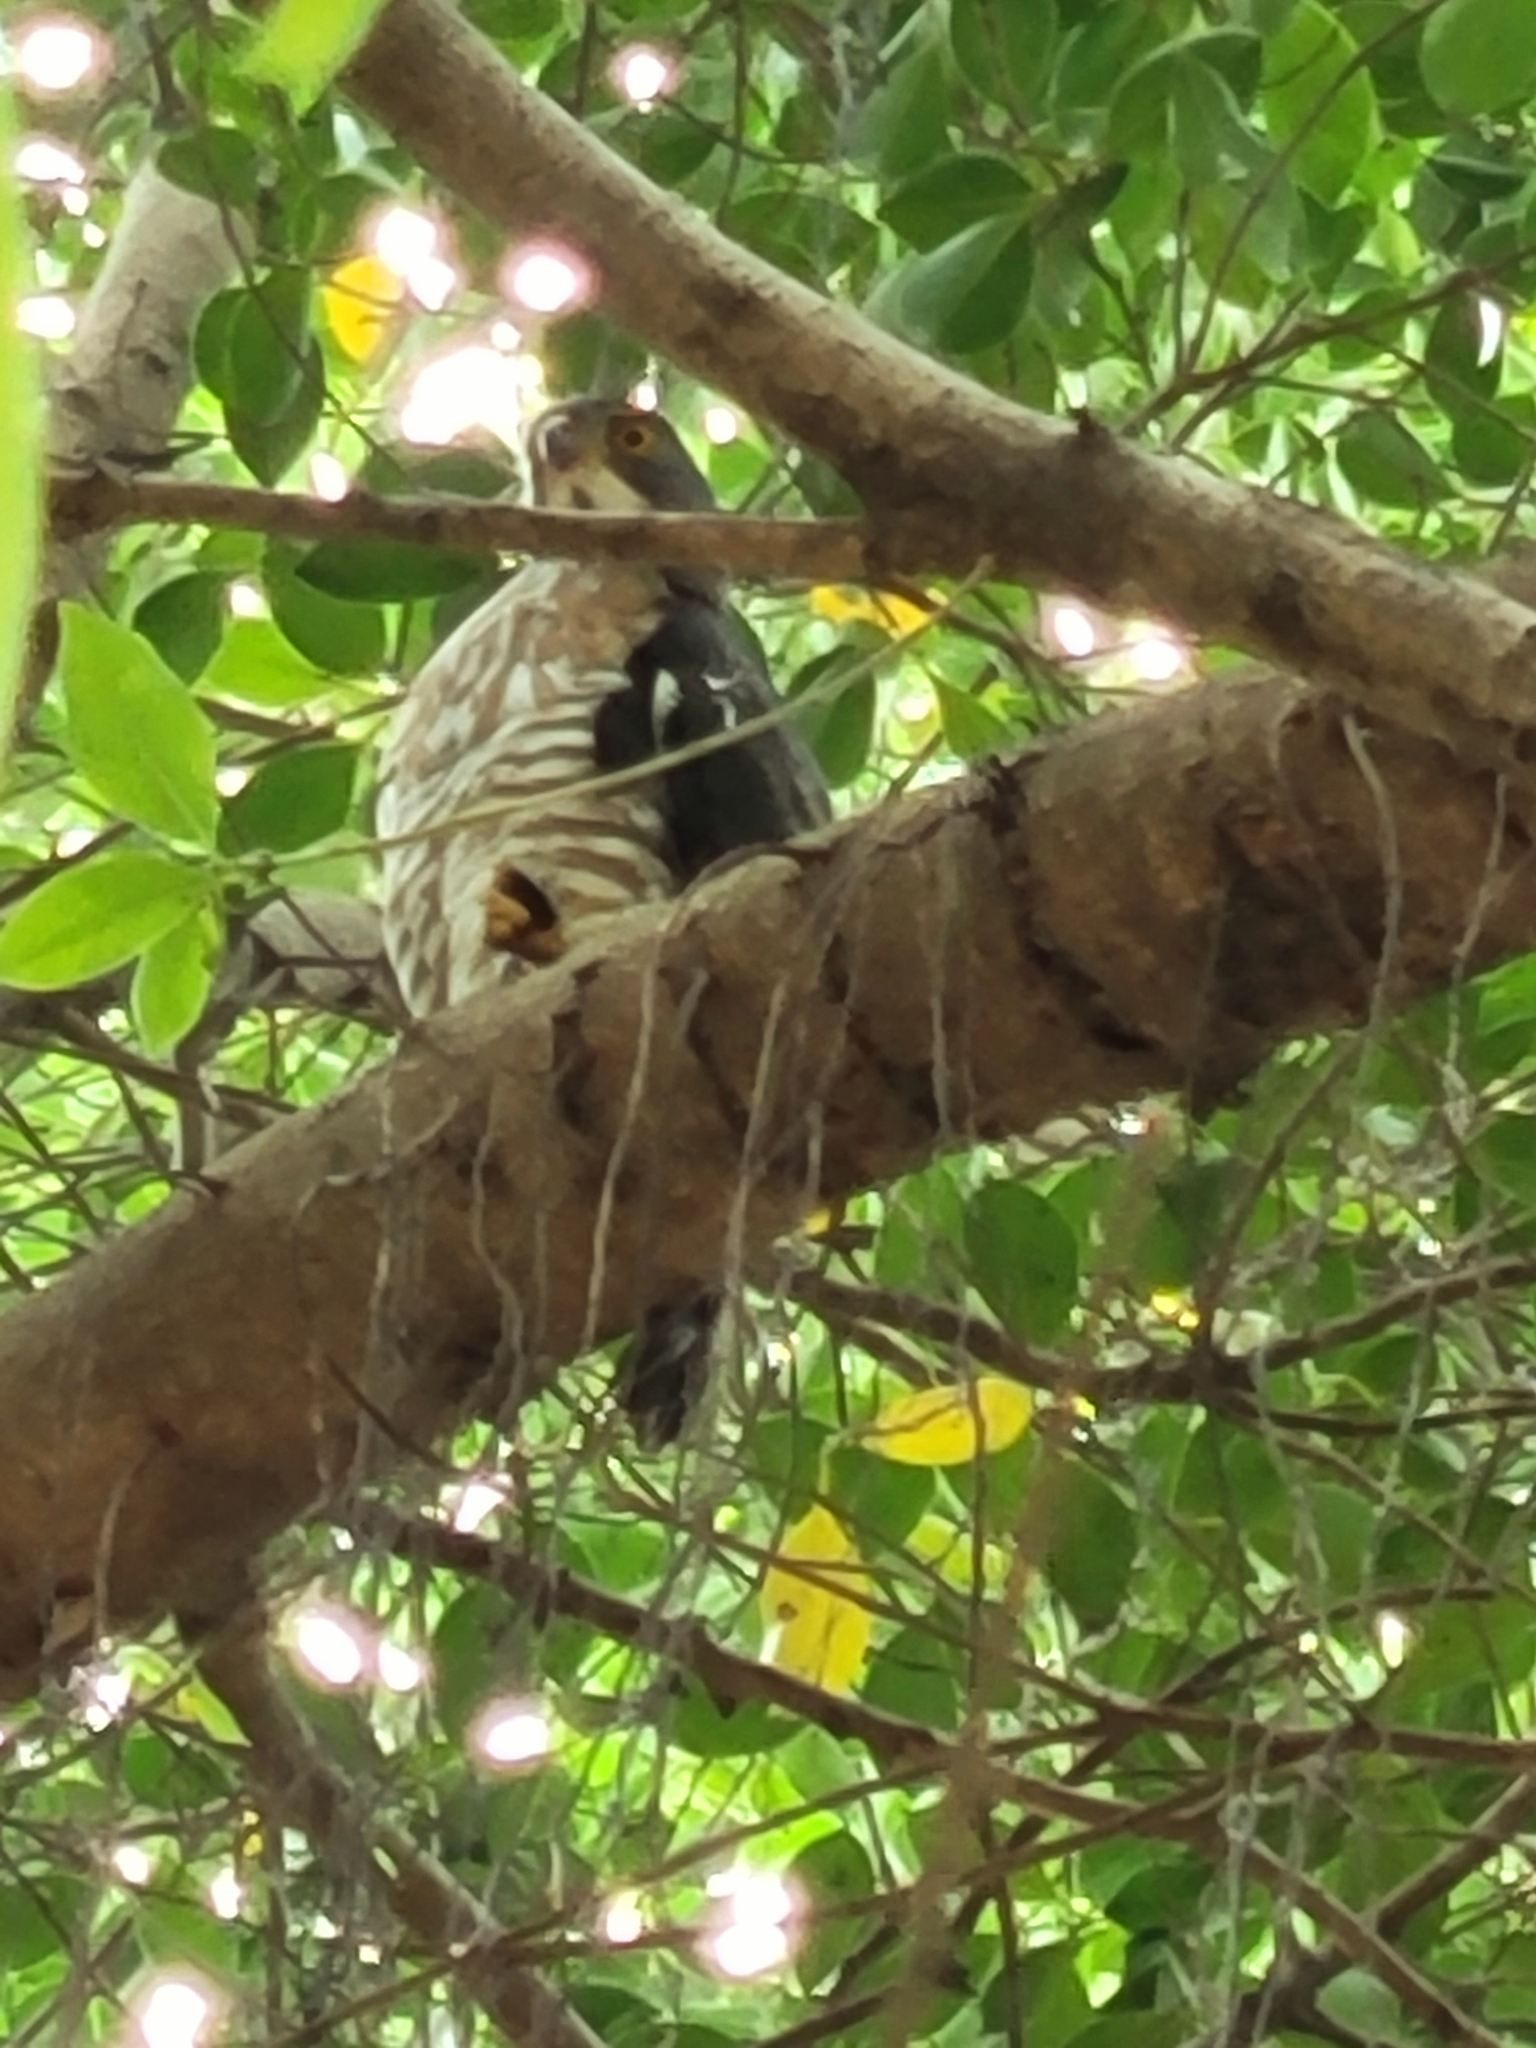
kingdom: Animalia
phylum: Chordata
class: Aves
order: Accipitriformes
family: Accipitridae
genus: Accipiter
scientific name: Accipiter trivirgatus
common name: Crested goshawk
